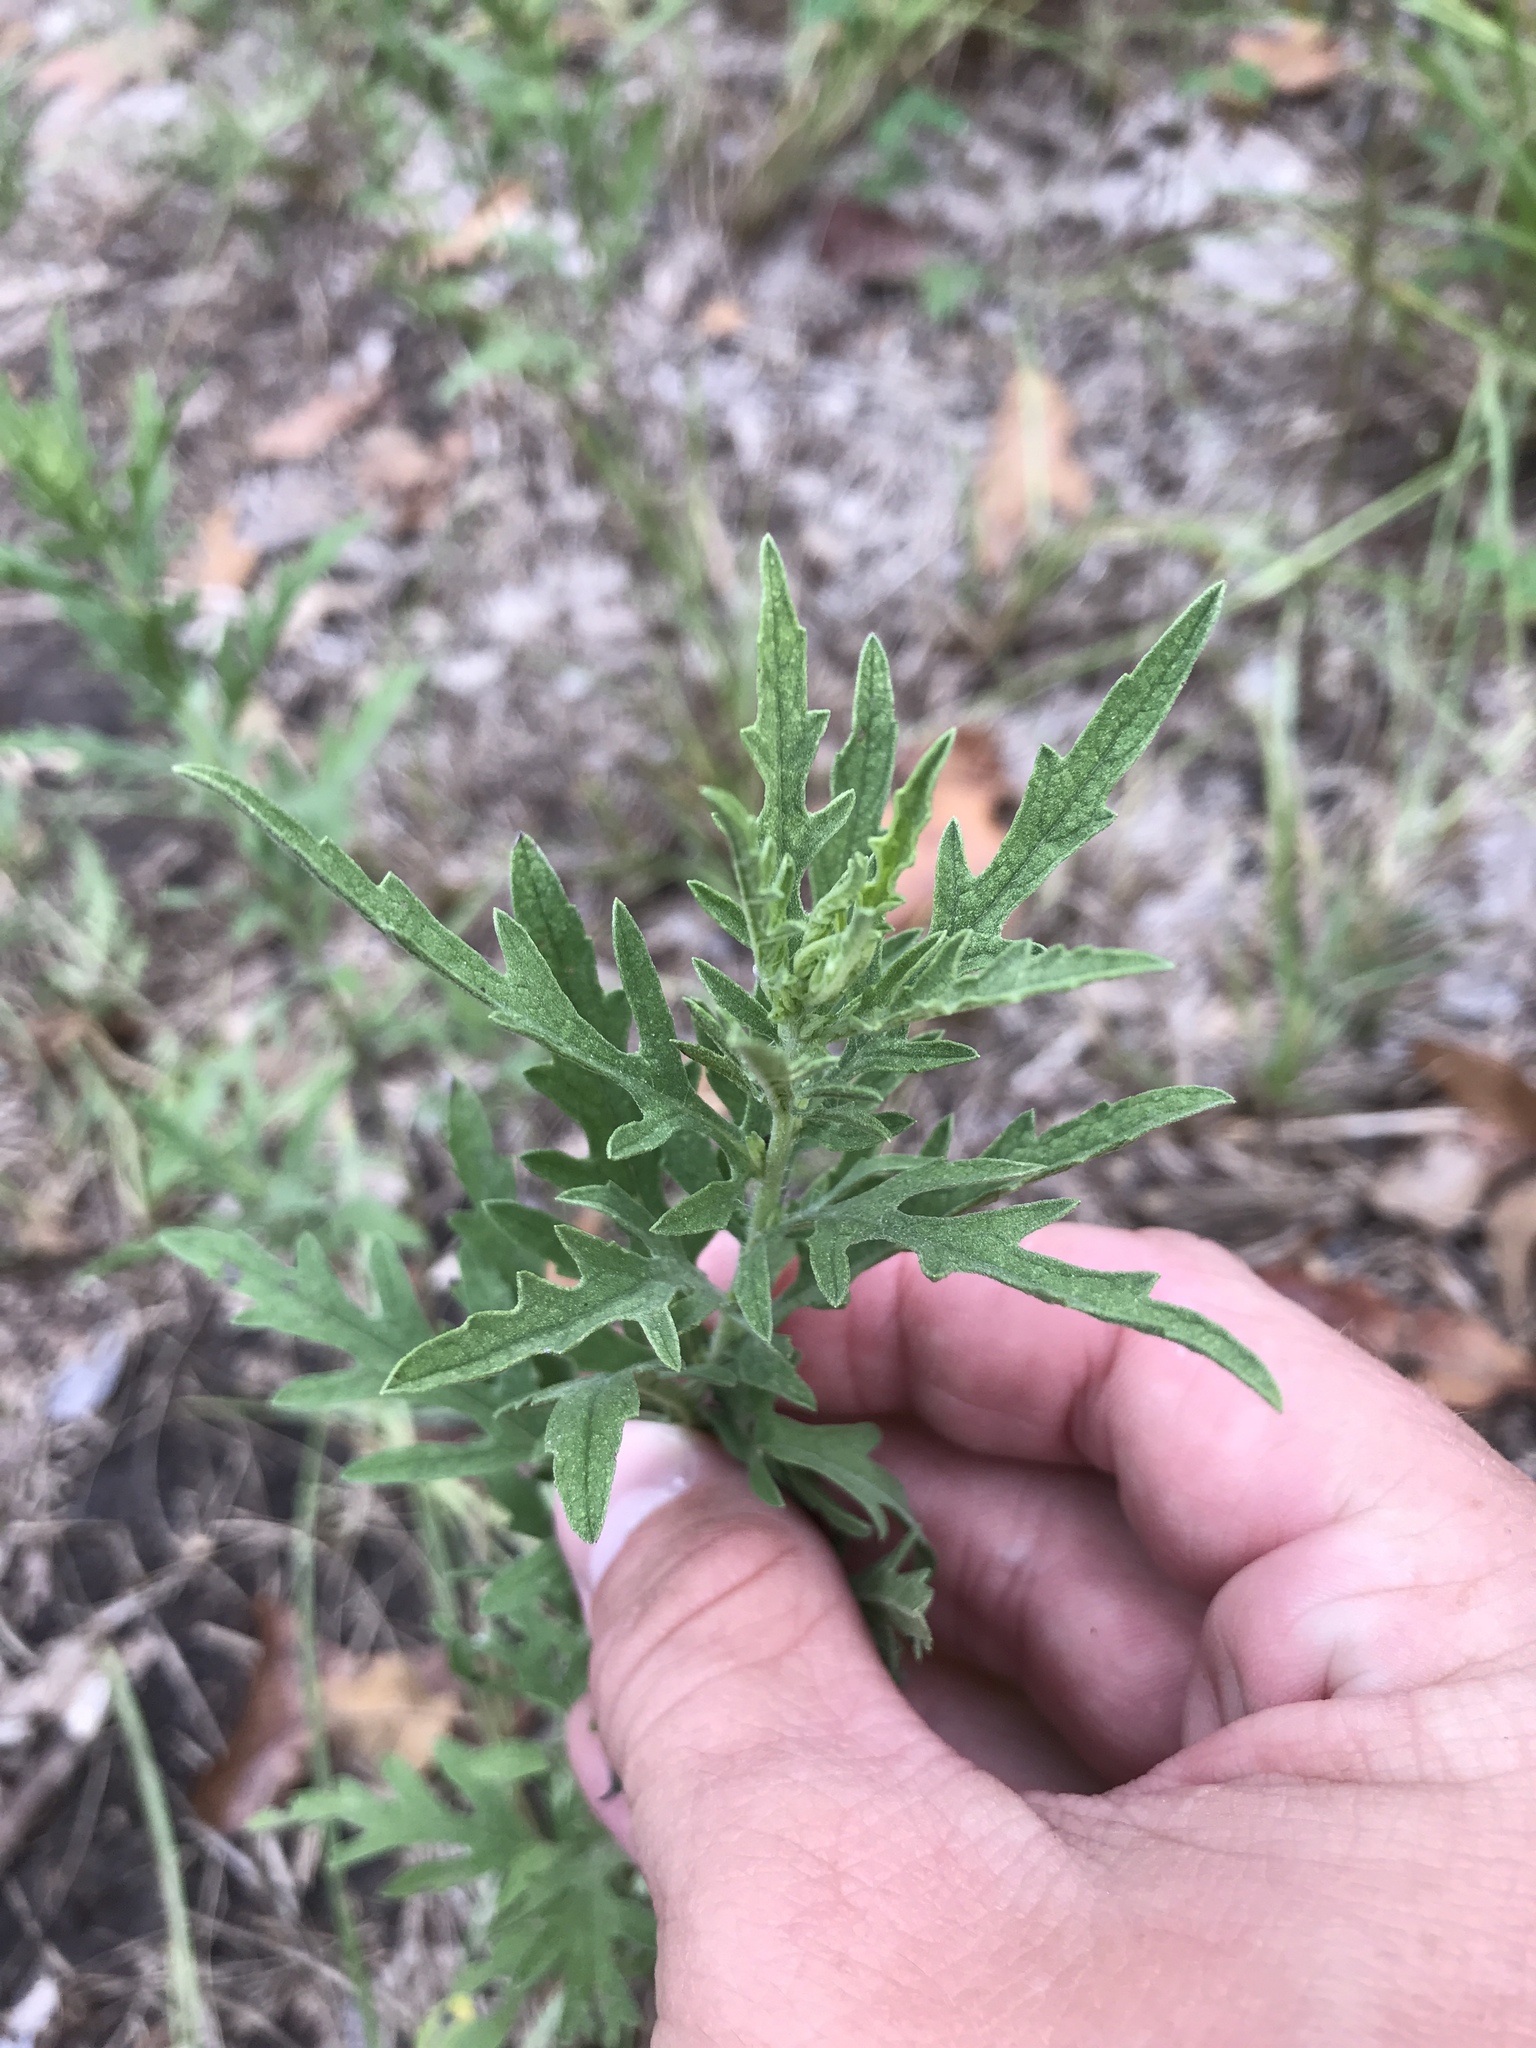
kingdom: Plantae
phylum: Tracheophyta
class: Magnoliopsida
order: Asterales
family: Asteraceae
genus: Ambrosia
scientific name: Ambrosia psilostachya
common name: Perennial ragweed
